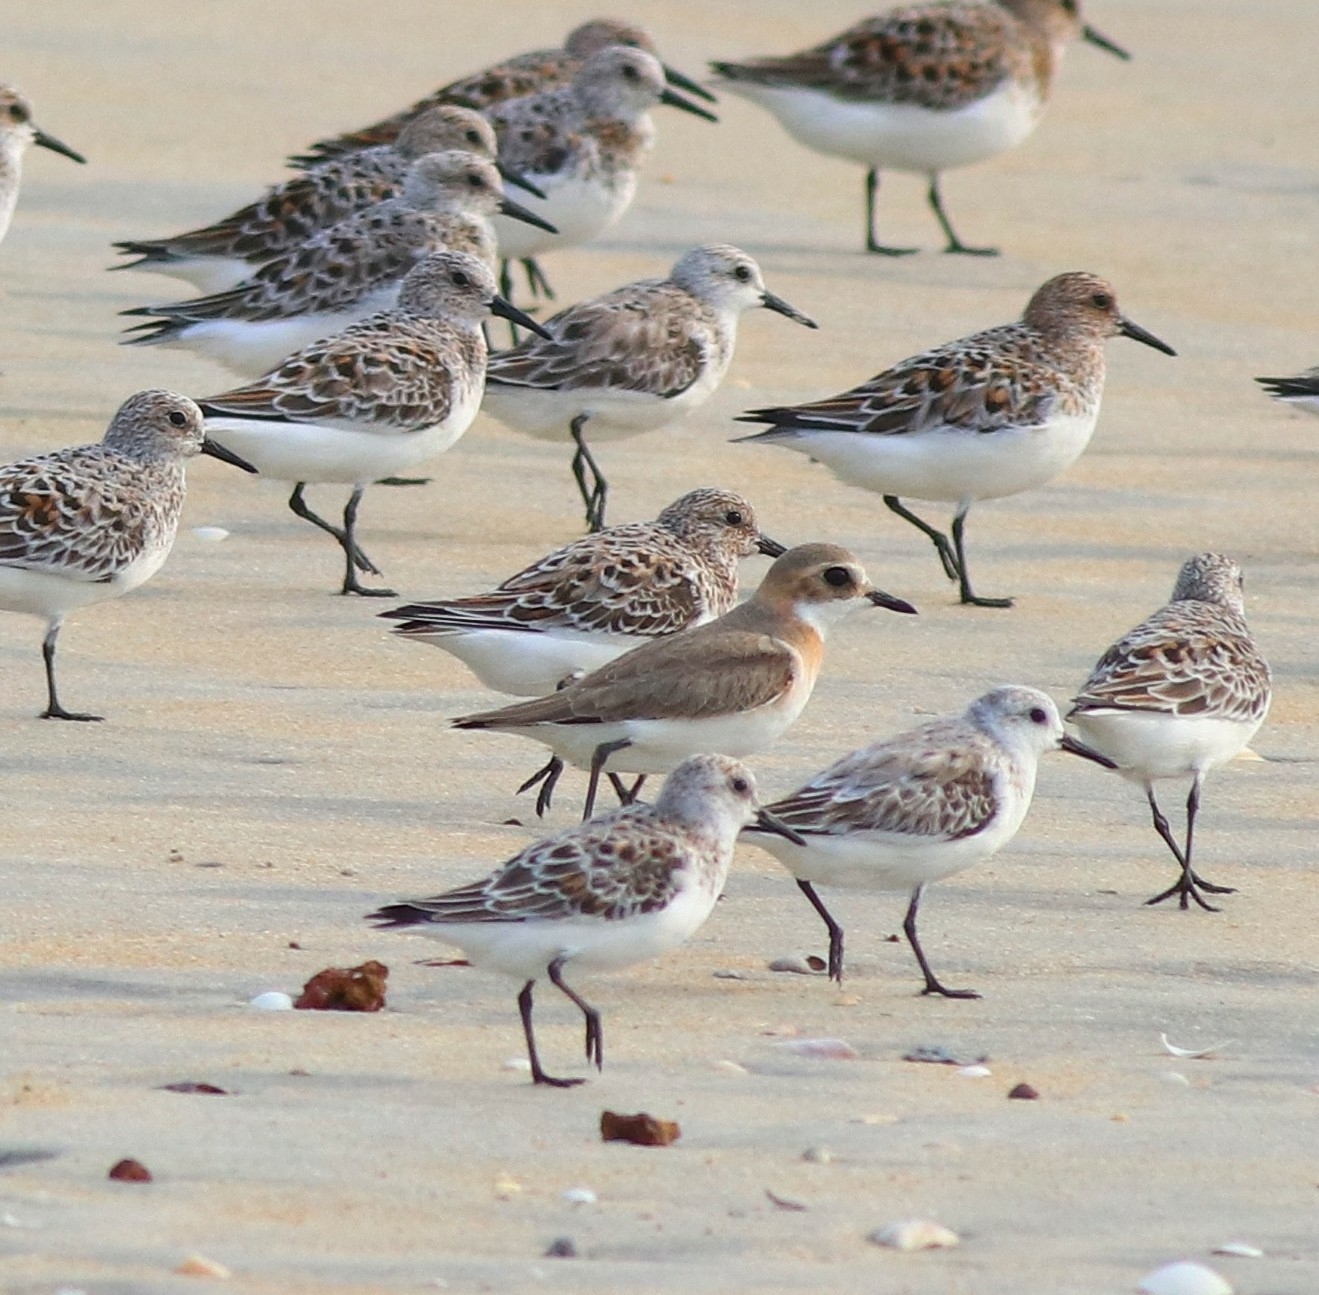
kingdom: Animalia
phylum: Chordata
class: Aves
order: Charadriiformes
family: Charadriidae
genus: Charadrius
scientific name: Charadrius leschenaultii
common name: Greater sand plover
